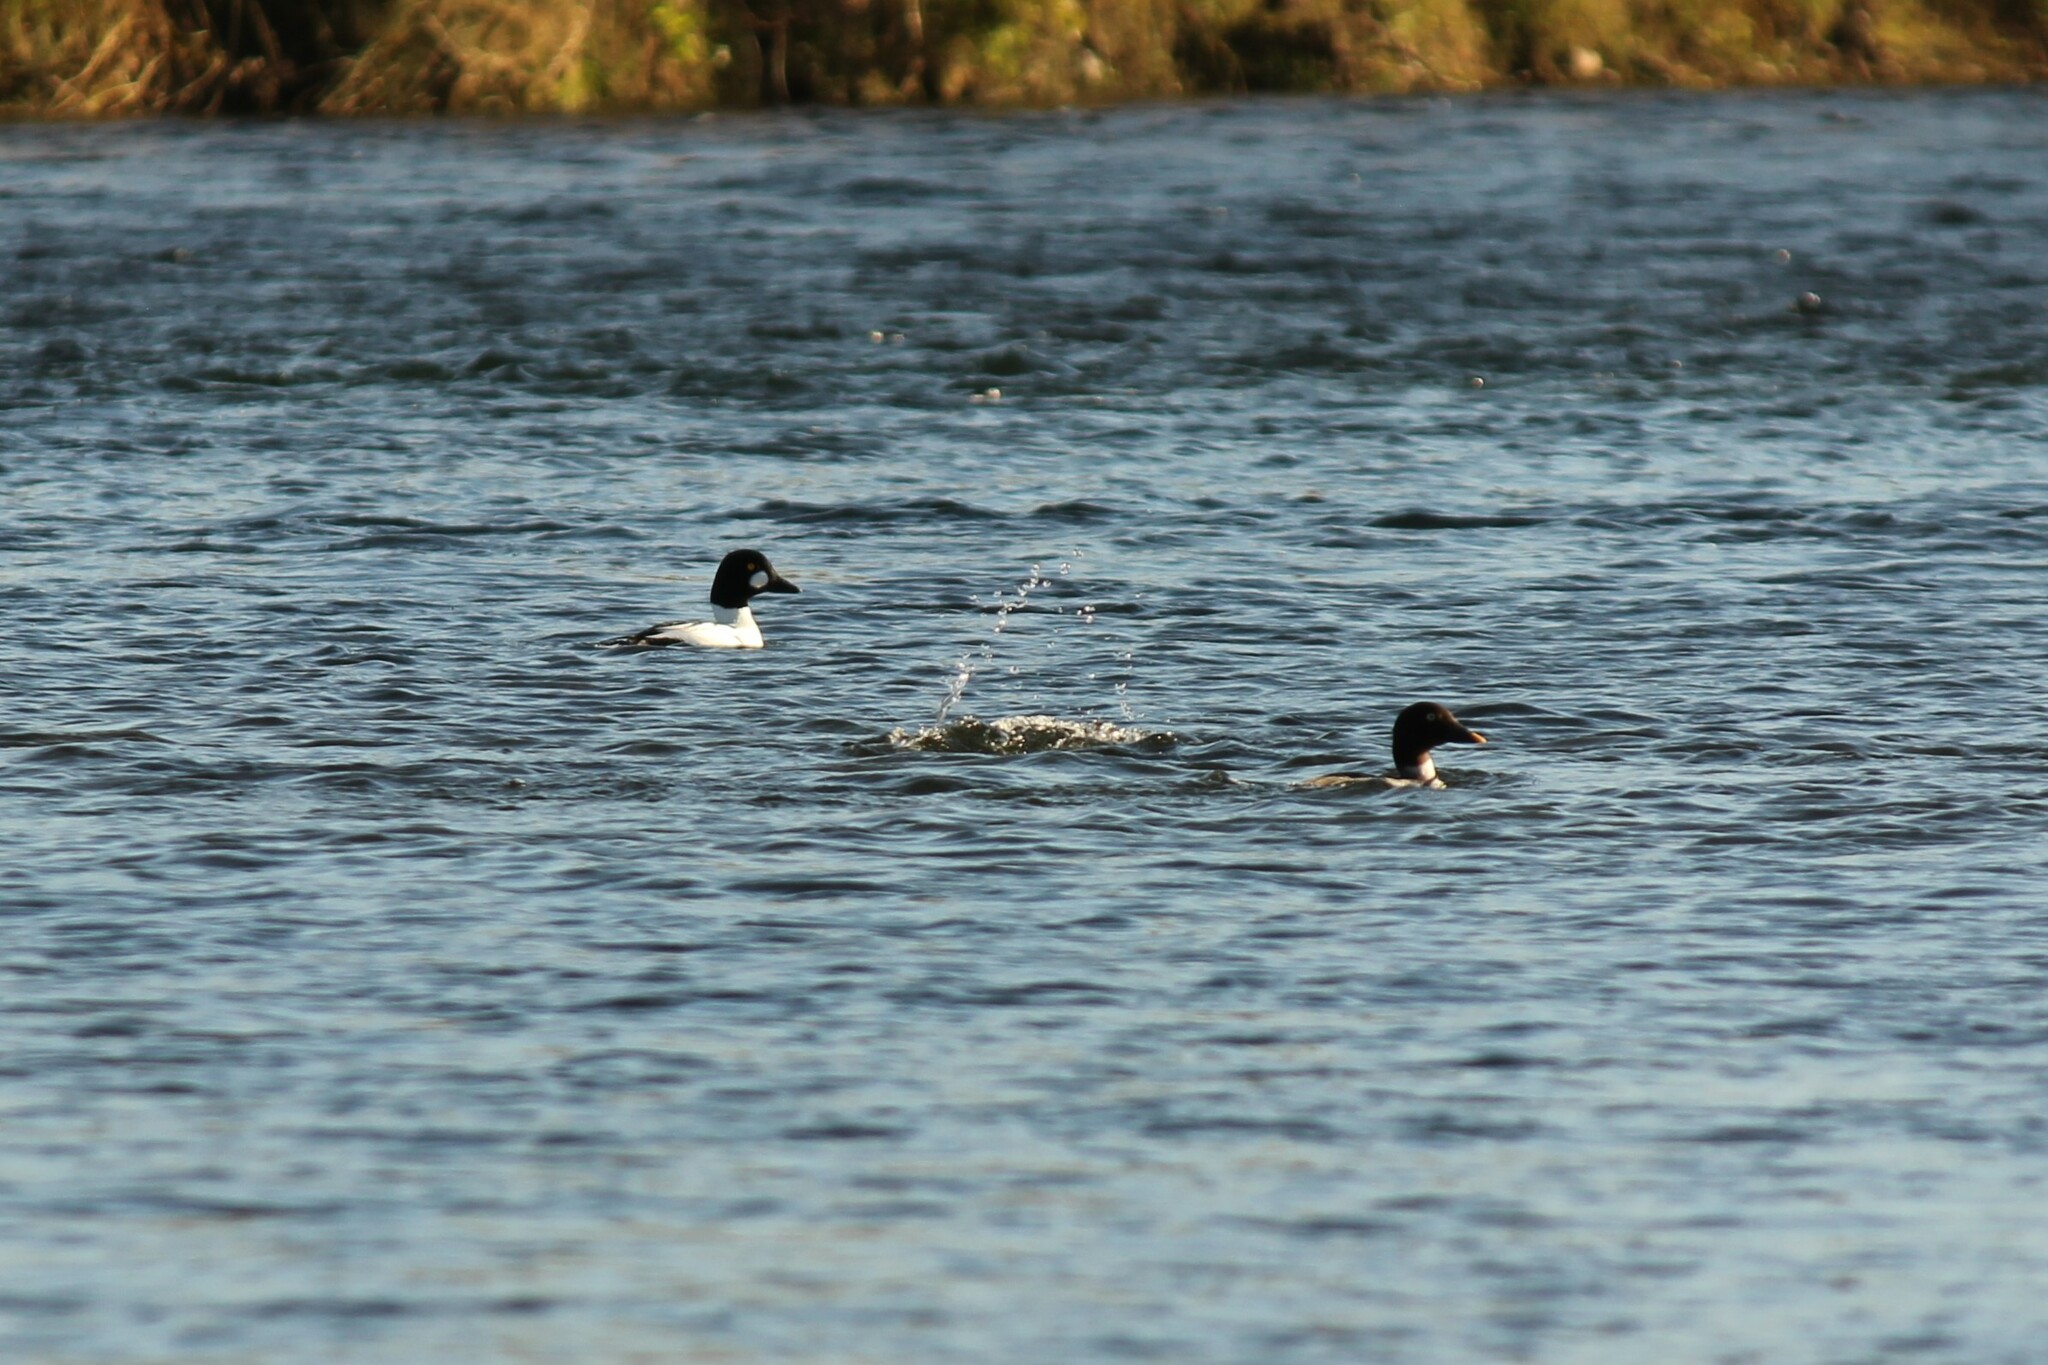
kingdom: Animalia
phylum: Chordata
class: Aves
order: Anseriformes
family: Anatidae
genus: Bucephala
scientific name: Bucephala clangula
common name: Common goldeneye
